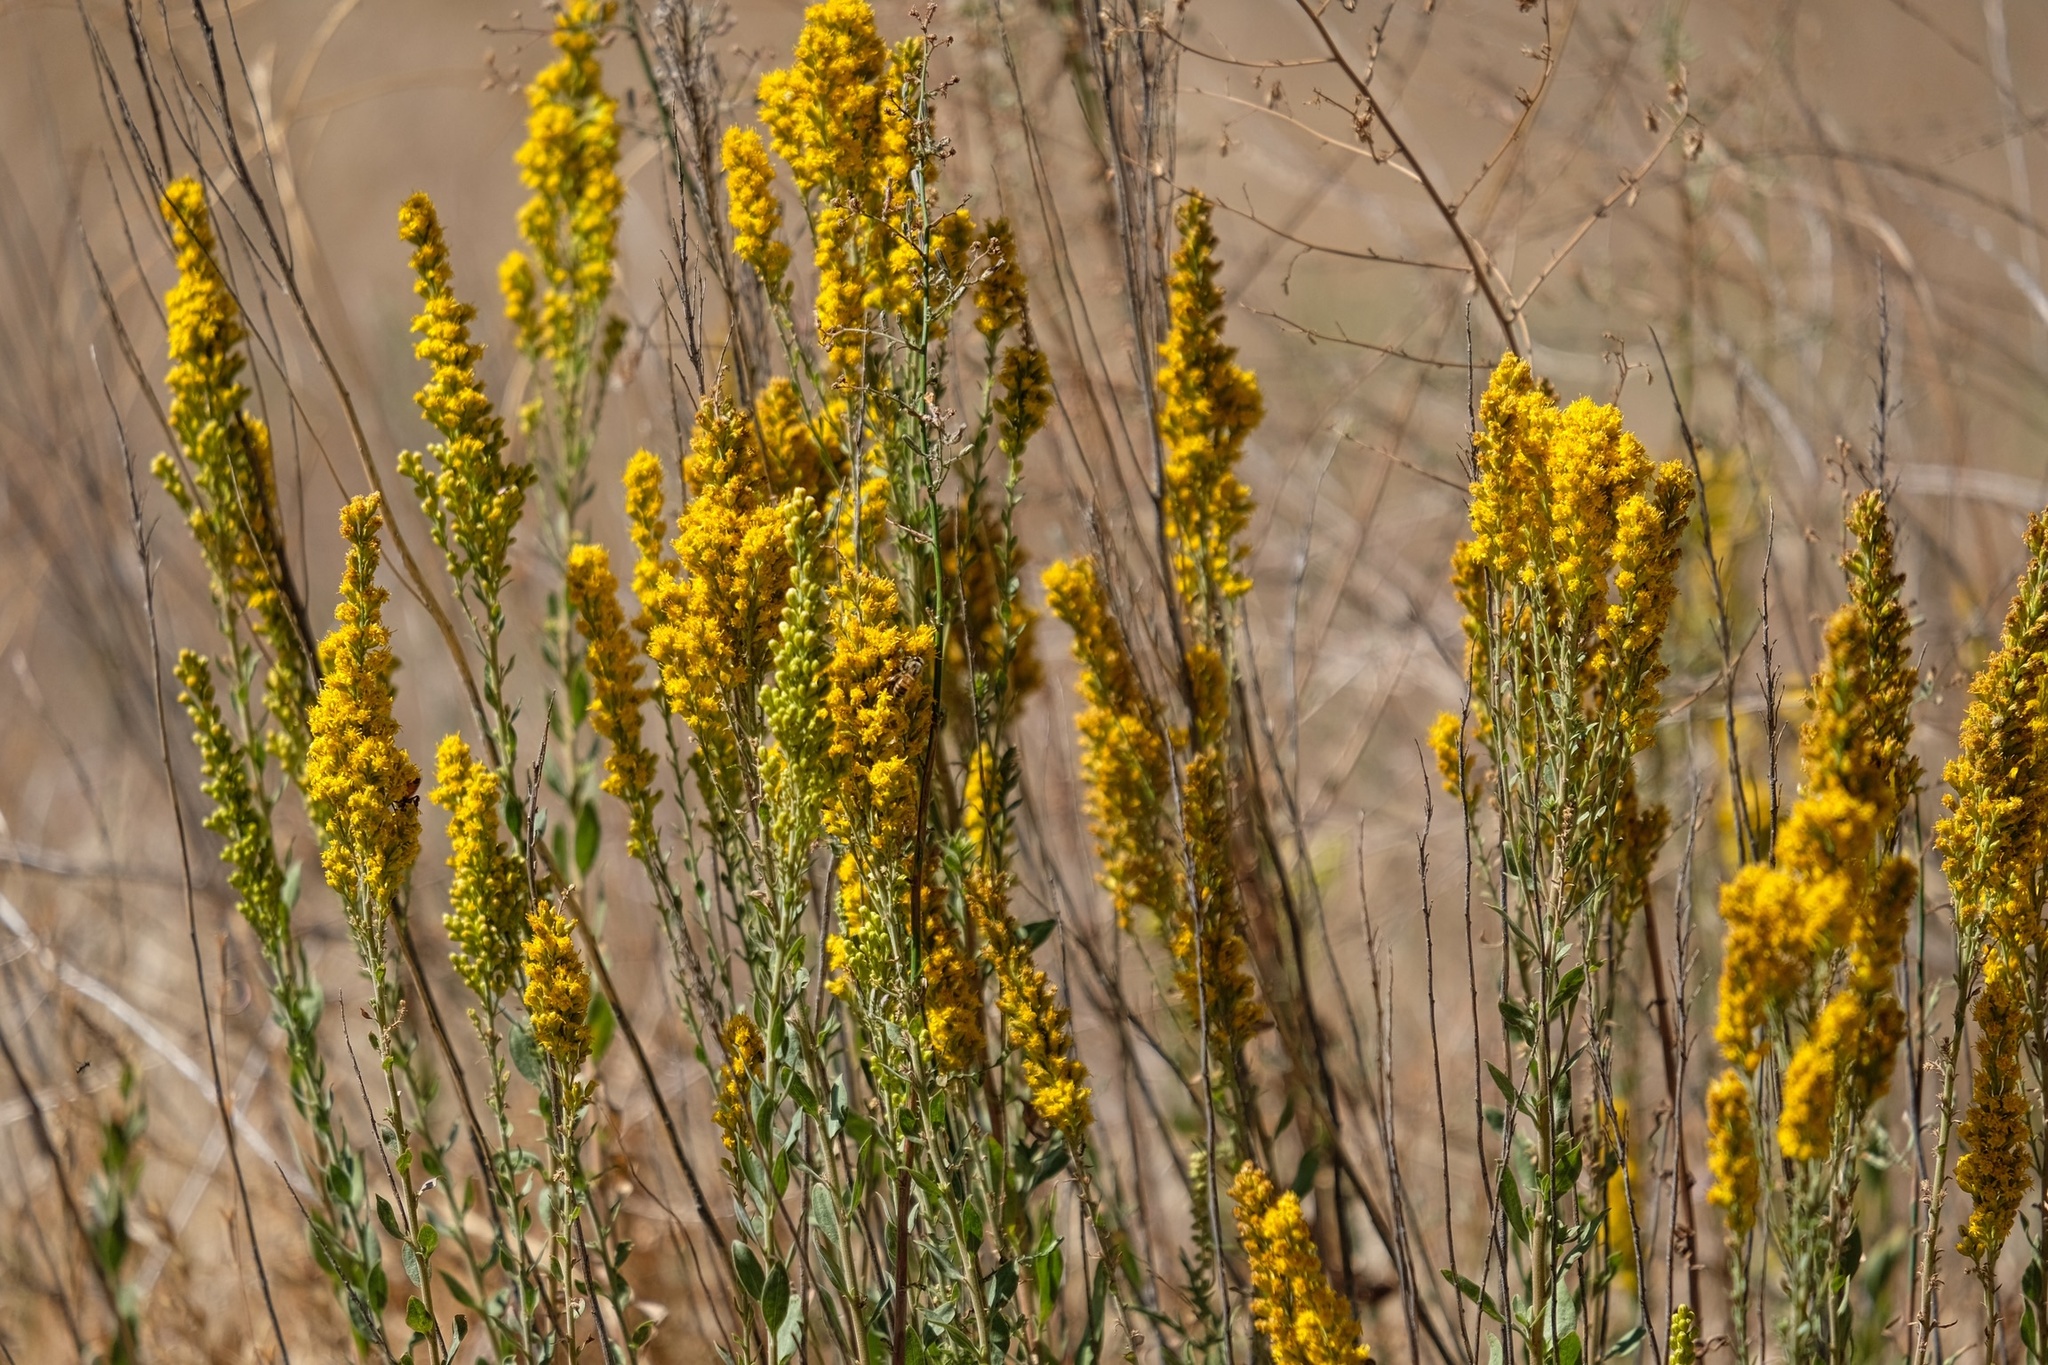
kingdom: Plantae
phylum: Tracheophyta
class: Magnoliopsida
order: Asterales
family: Asteraceae
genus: Solidago
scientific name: Solidago velutina
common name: Three-nerve goldenrod
